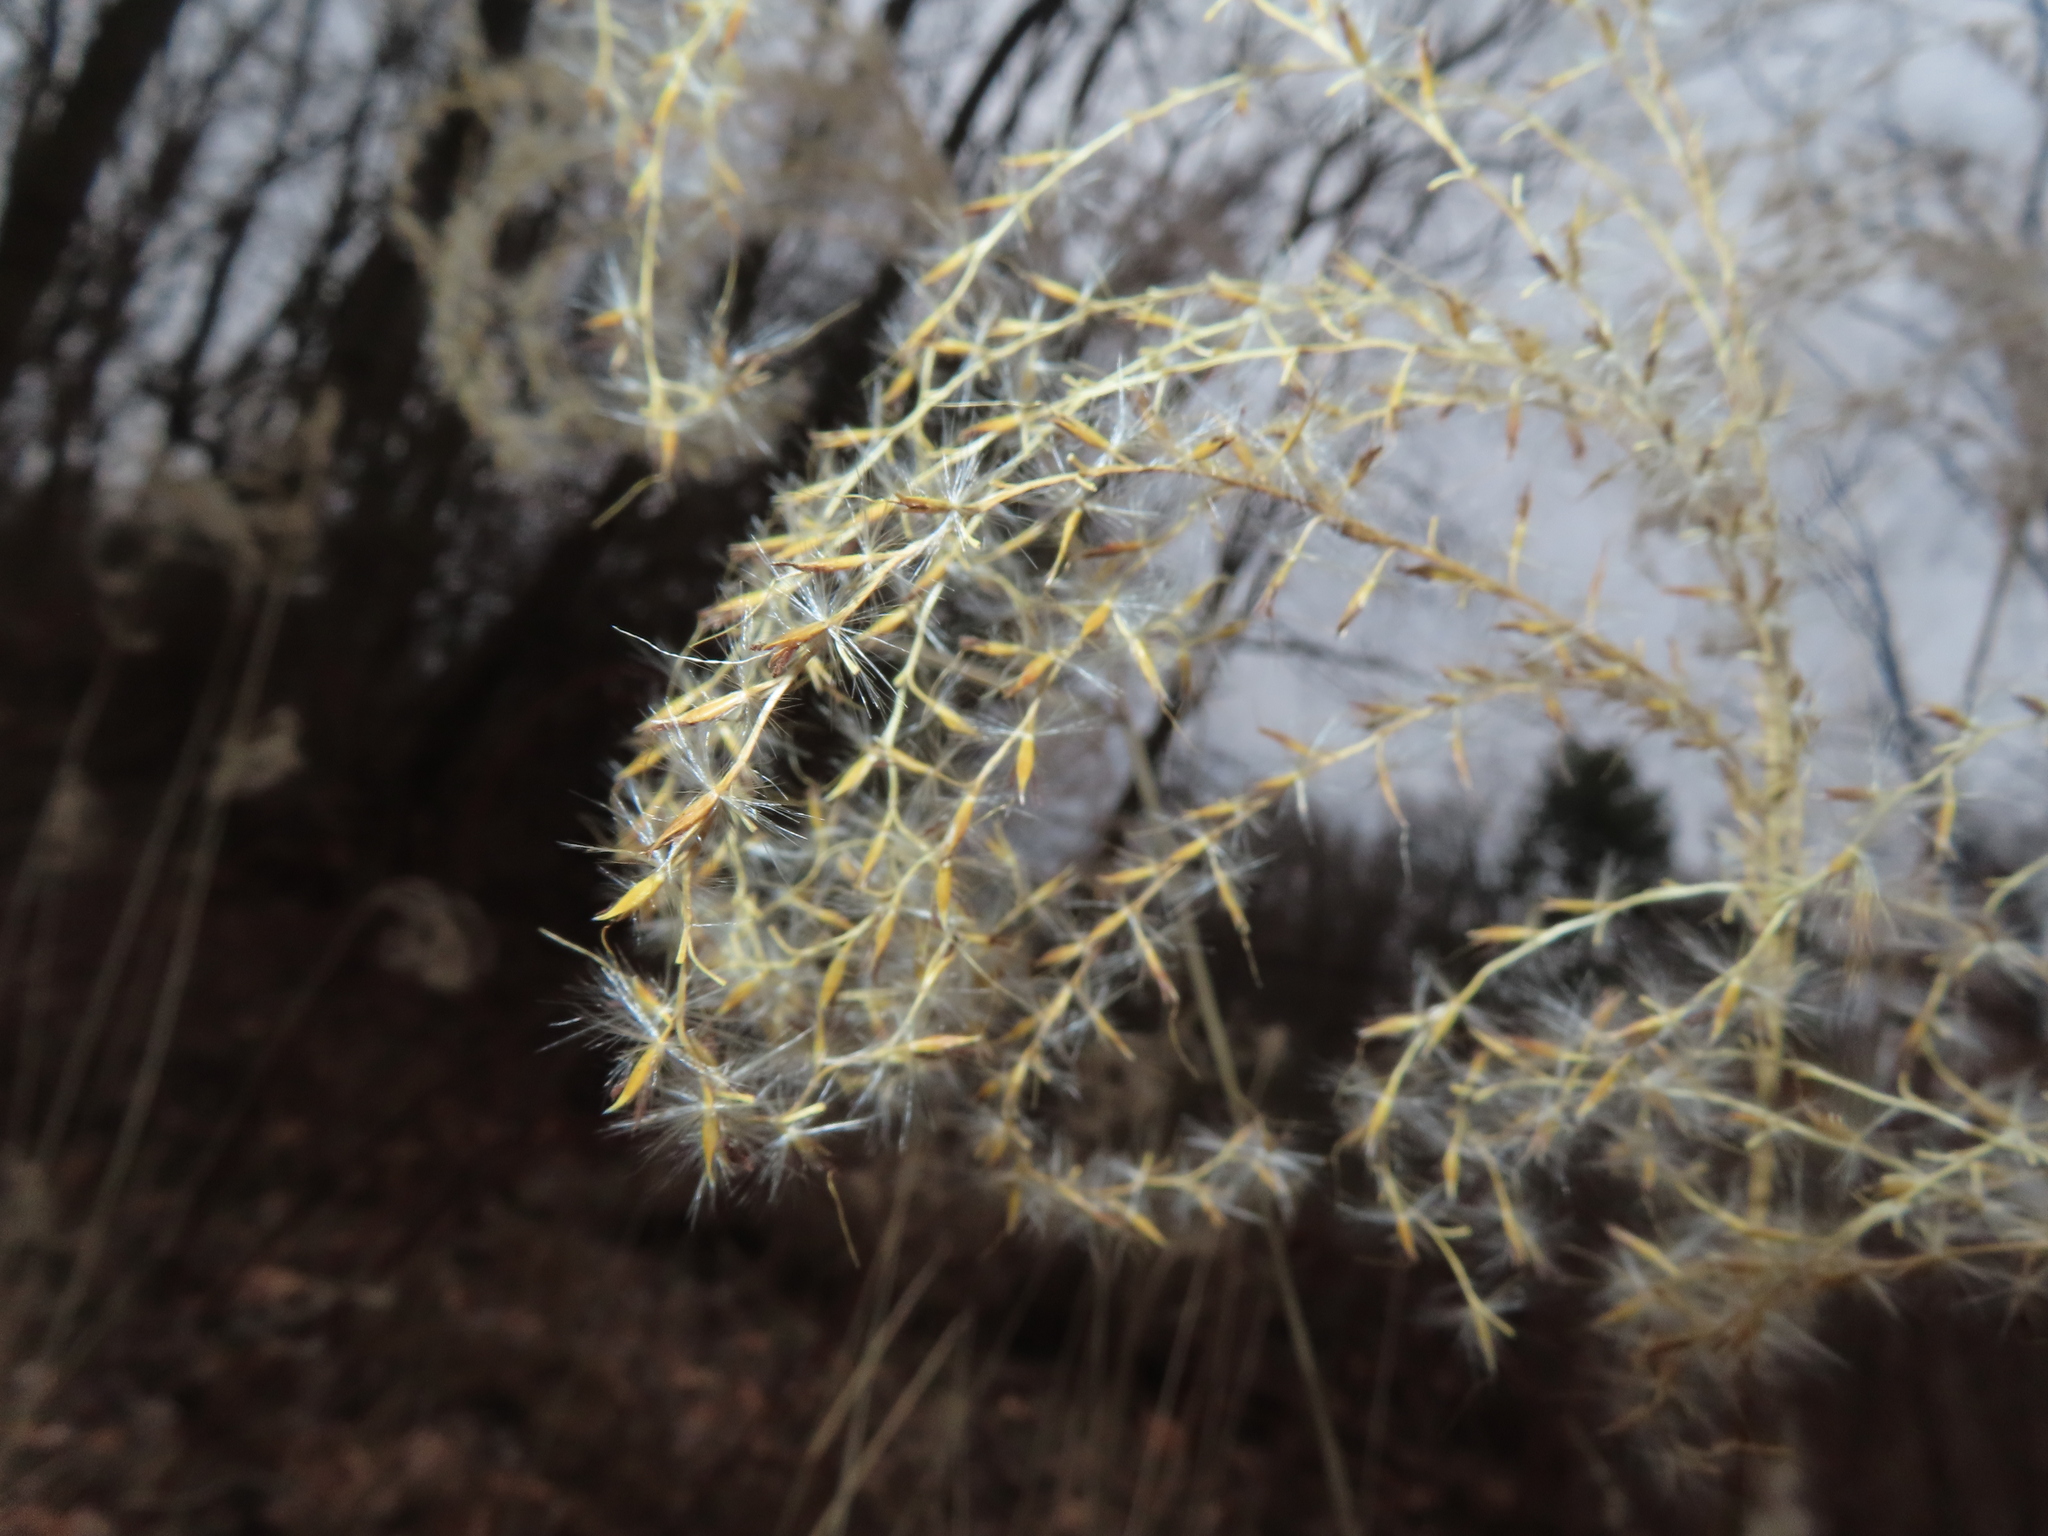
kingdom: Plantae
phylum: Tracheophyta
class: Liliopsida
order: Poales
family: Poaceae
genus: Miscanthus
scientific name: Miscanthus sinensis
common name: Chinese silvergrass
